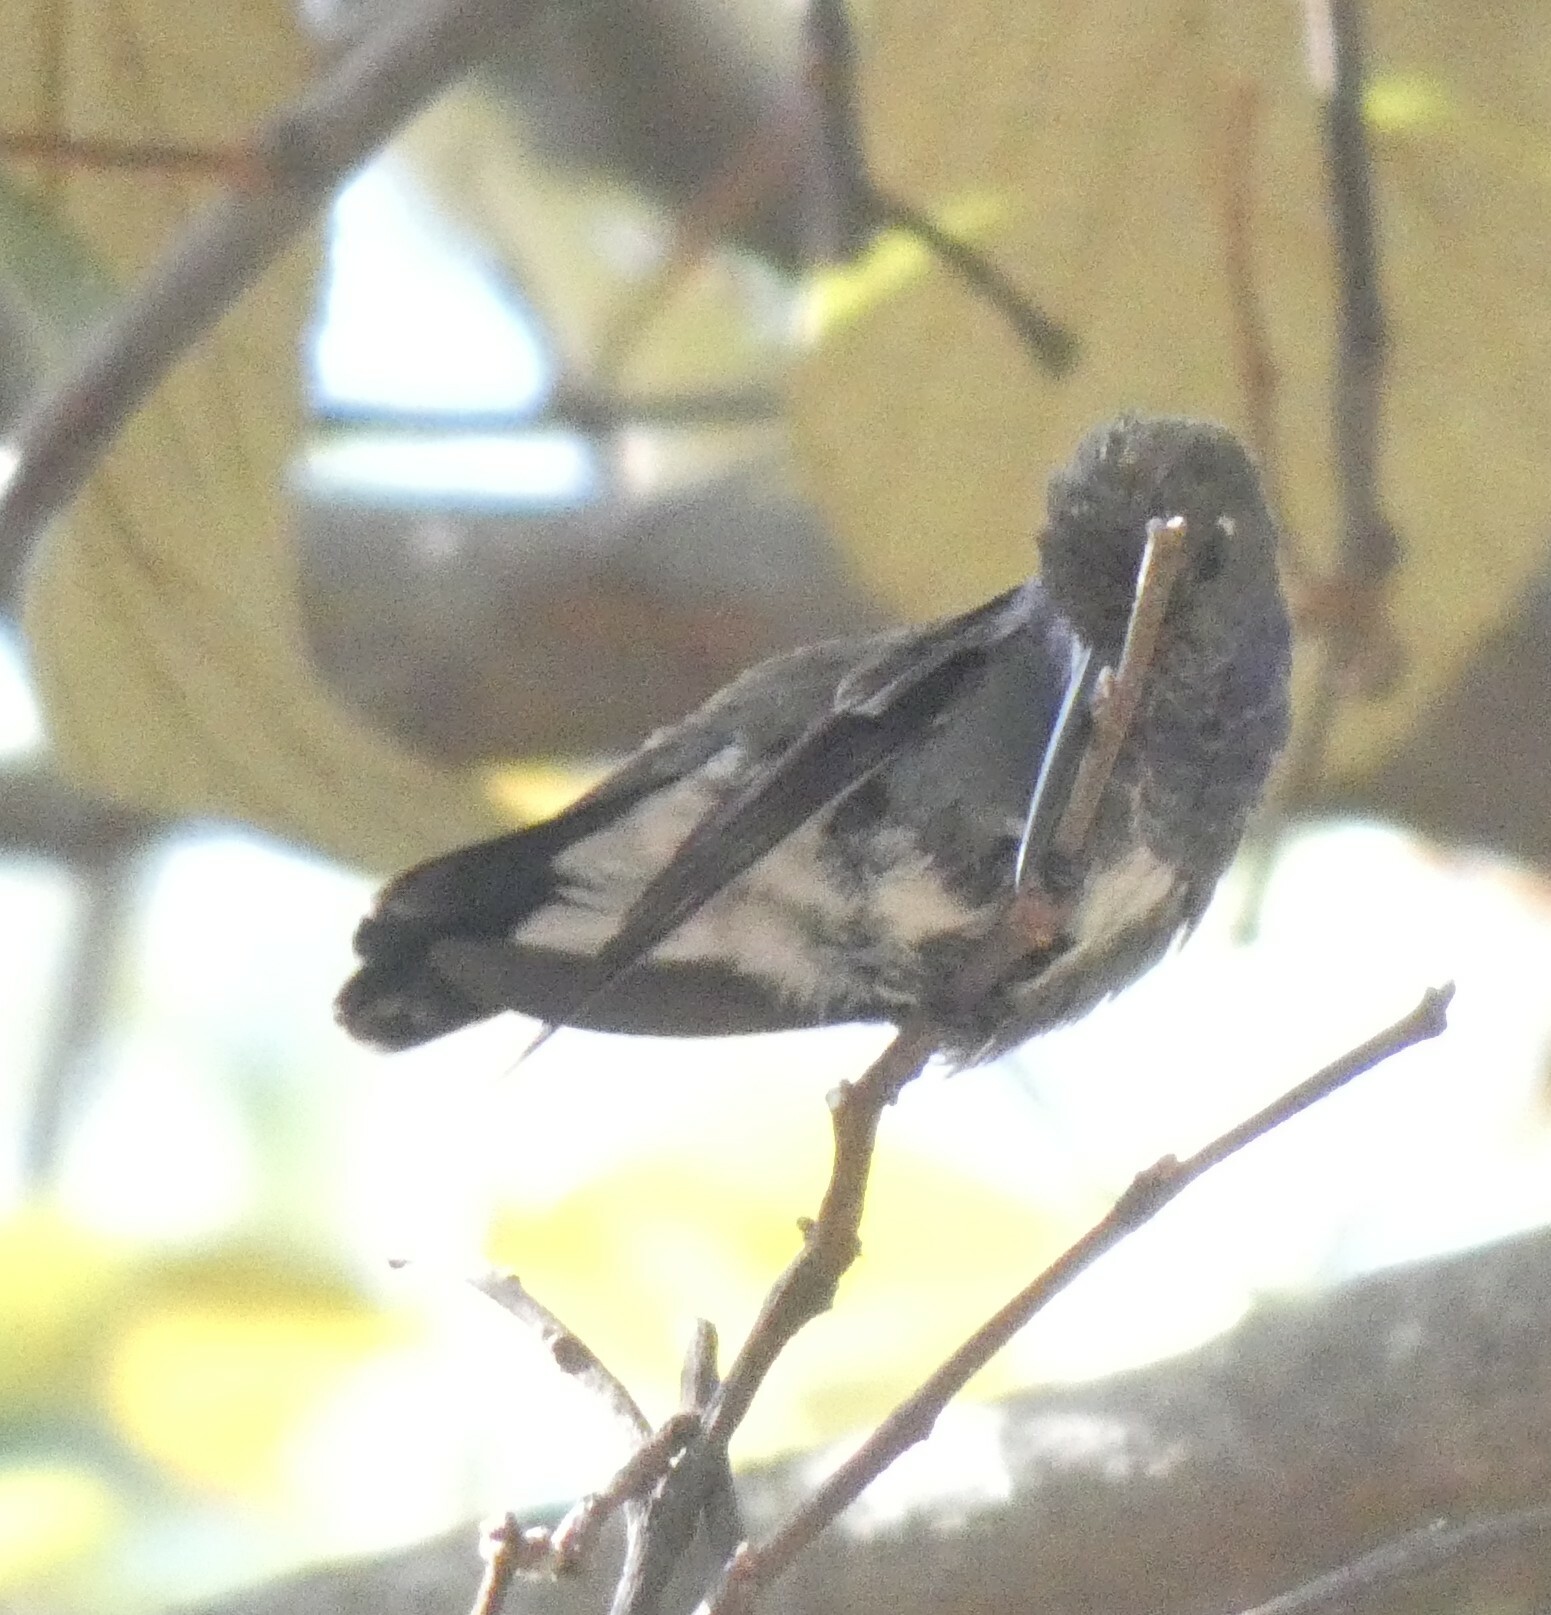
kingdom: Animalia
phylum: Chordata
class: Aves
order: Apodiformes
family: Trochilidae
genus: Chionomesa
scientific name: Chionomesa lactea
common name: Sapphire-spangled emerald
